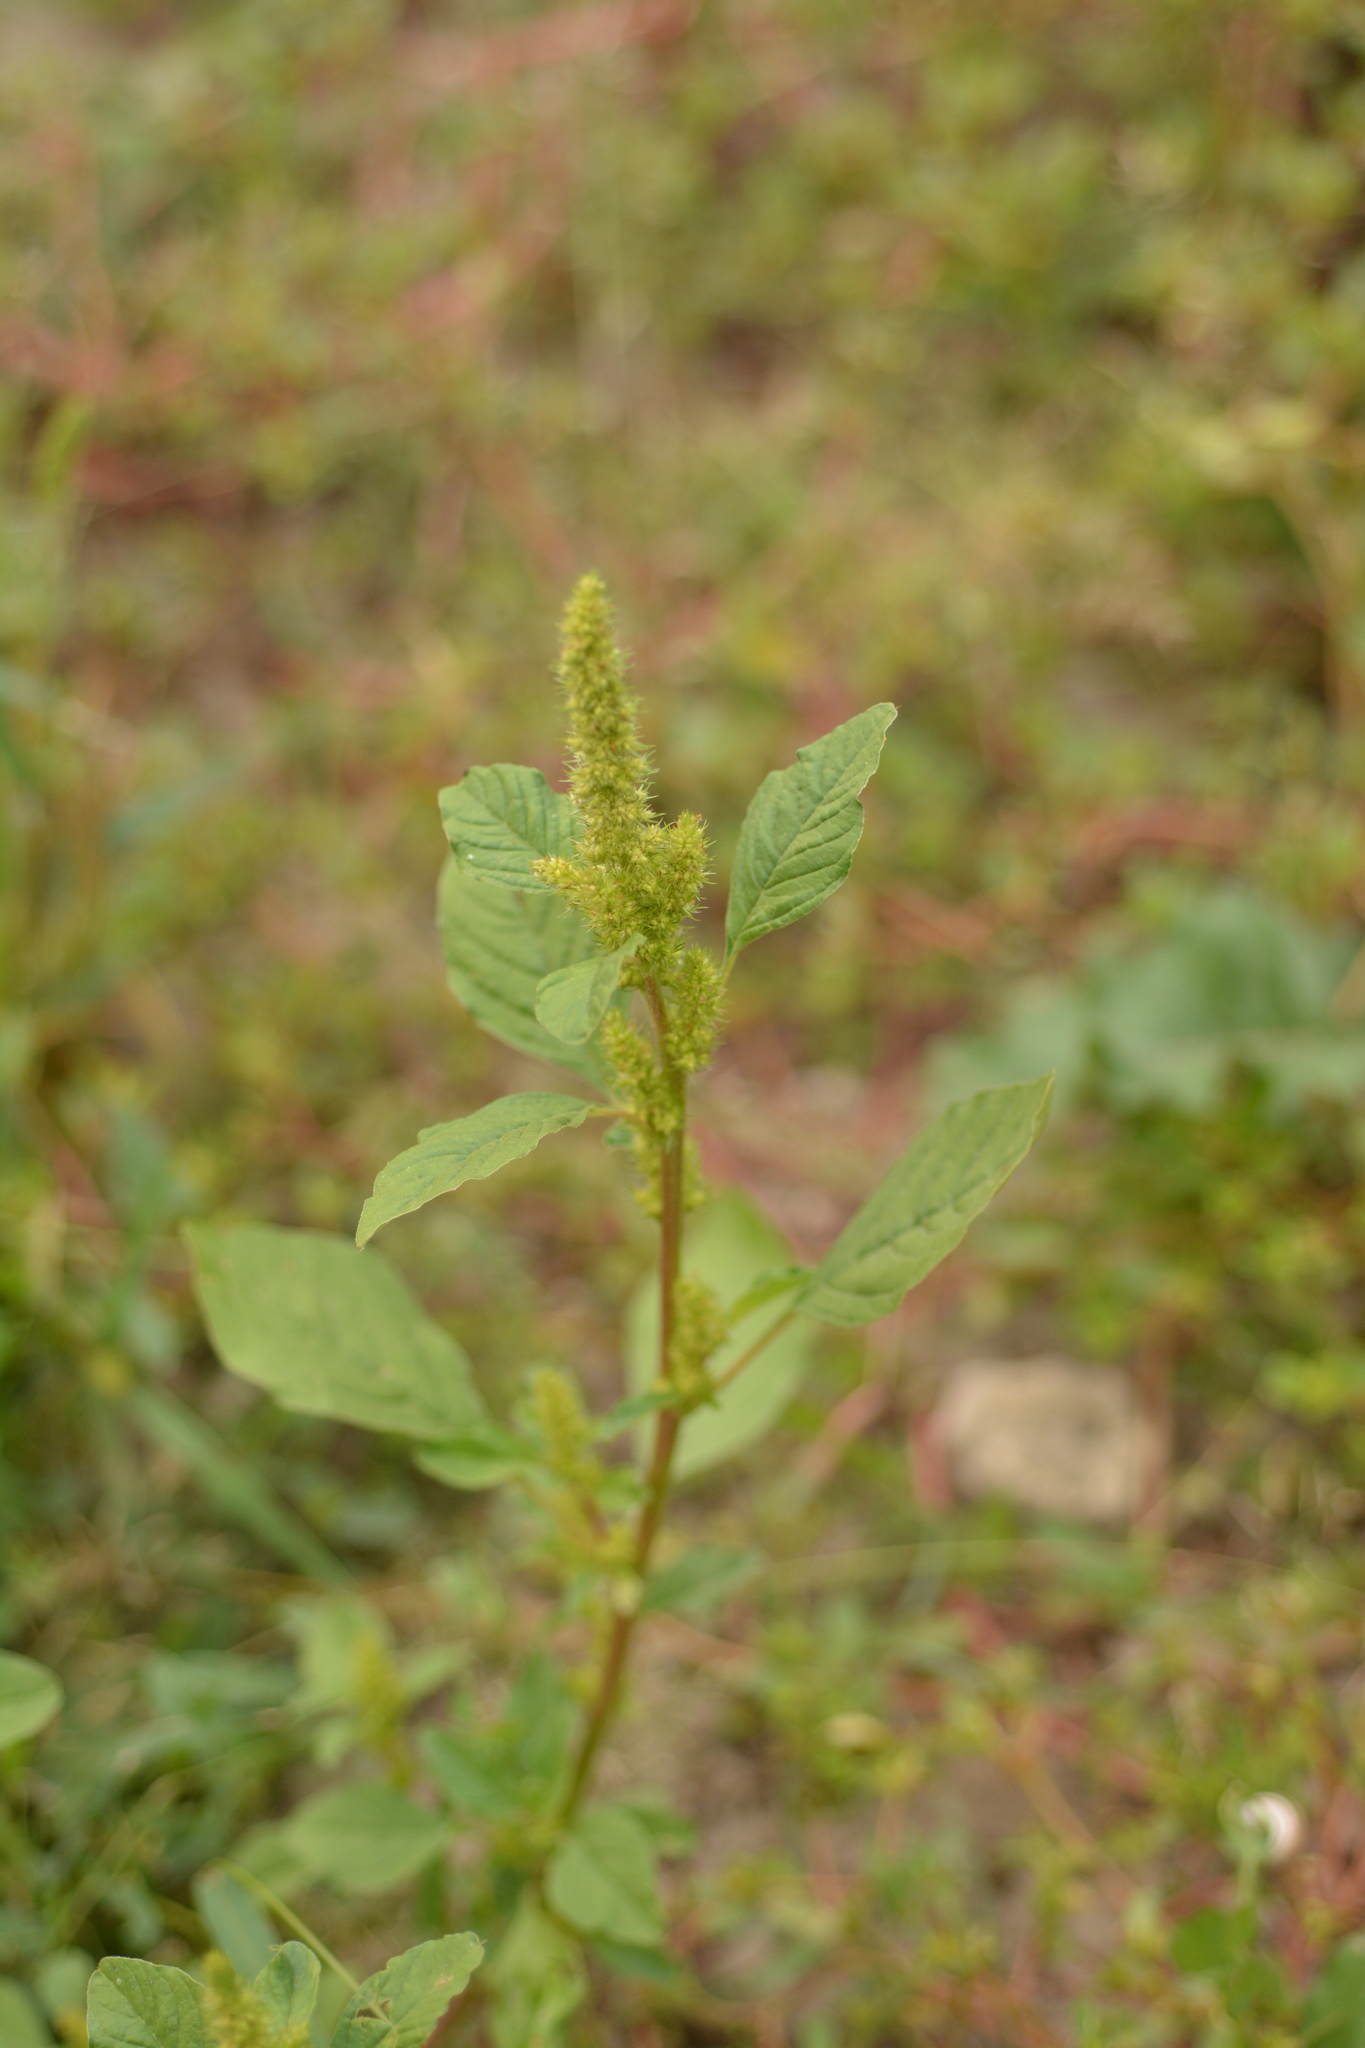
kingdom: Plantae
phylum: Tracheophyta
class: Magnoliopsida
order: Caryophyllales
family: Amaranthaceae
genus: Amaranthus
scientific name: Amaranthus powellii
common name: Powell's amaranth
